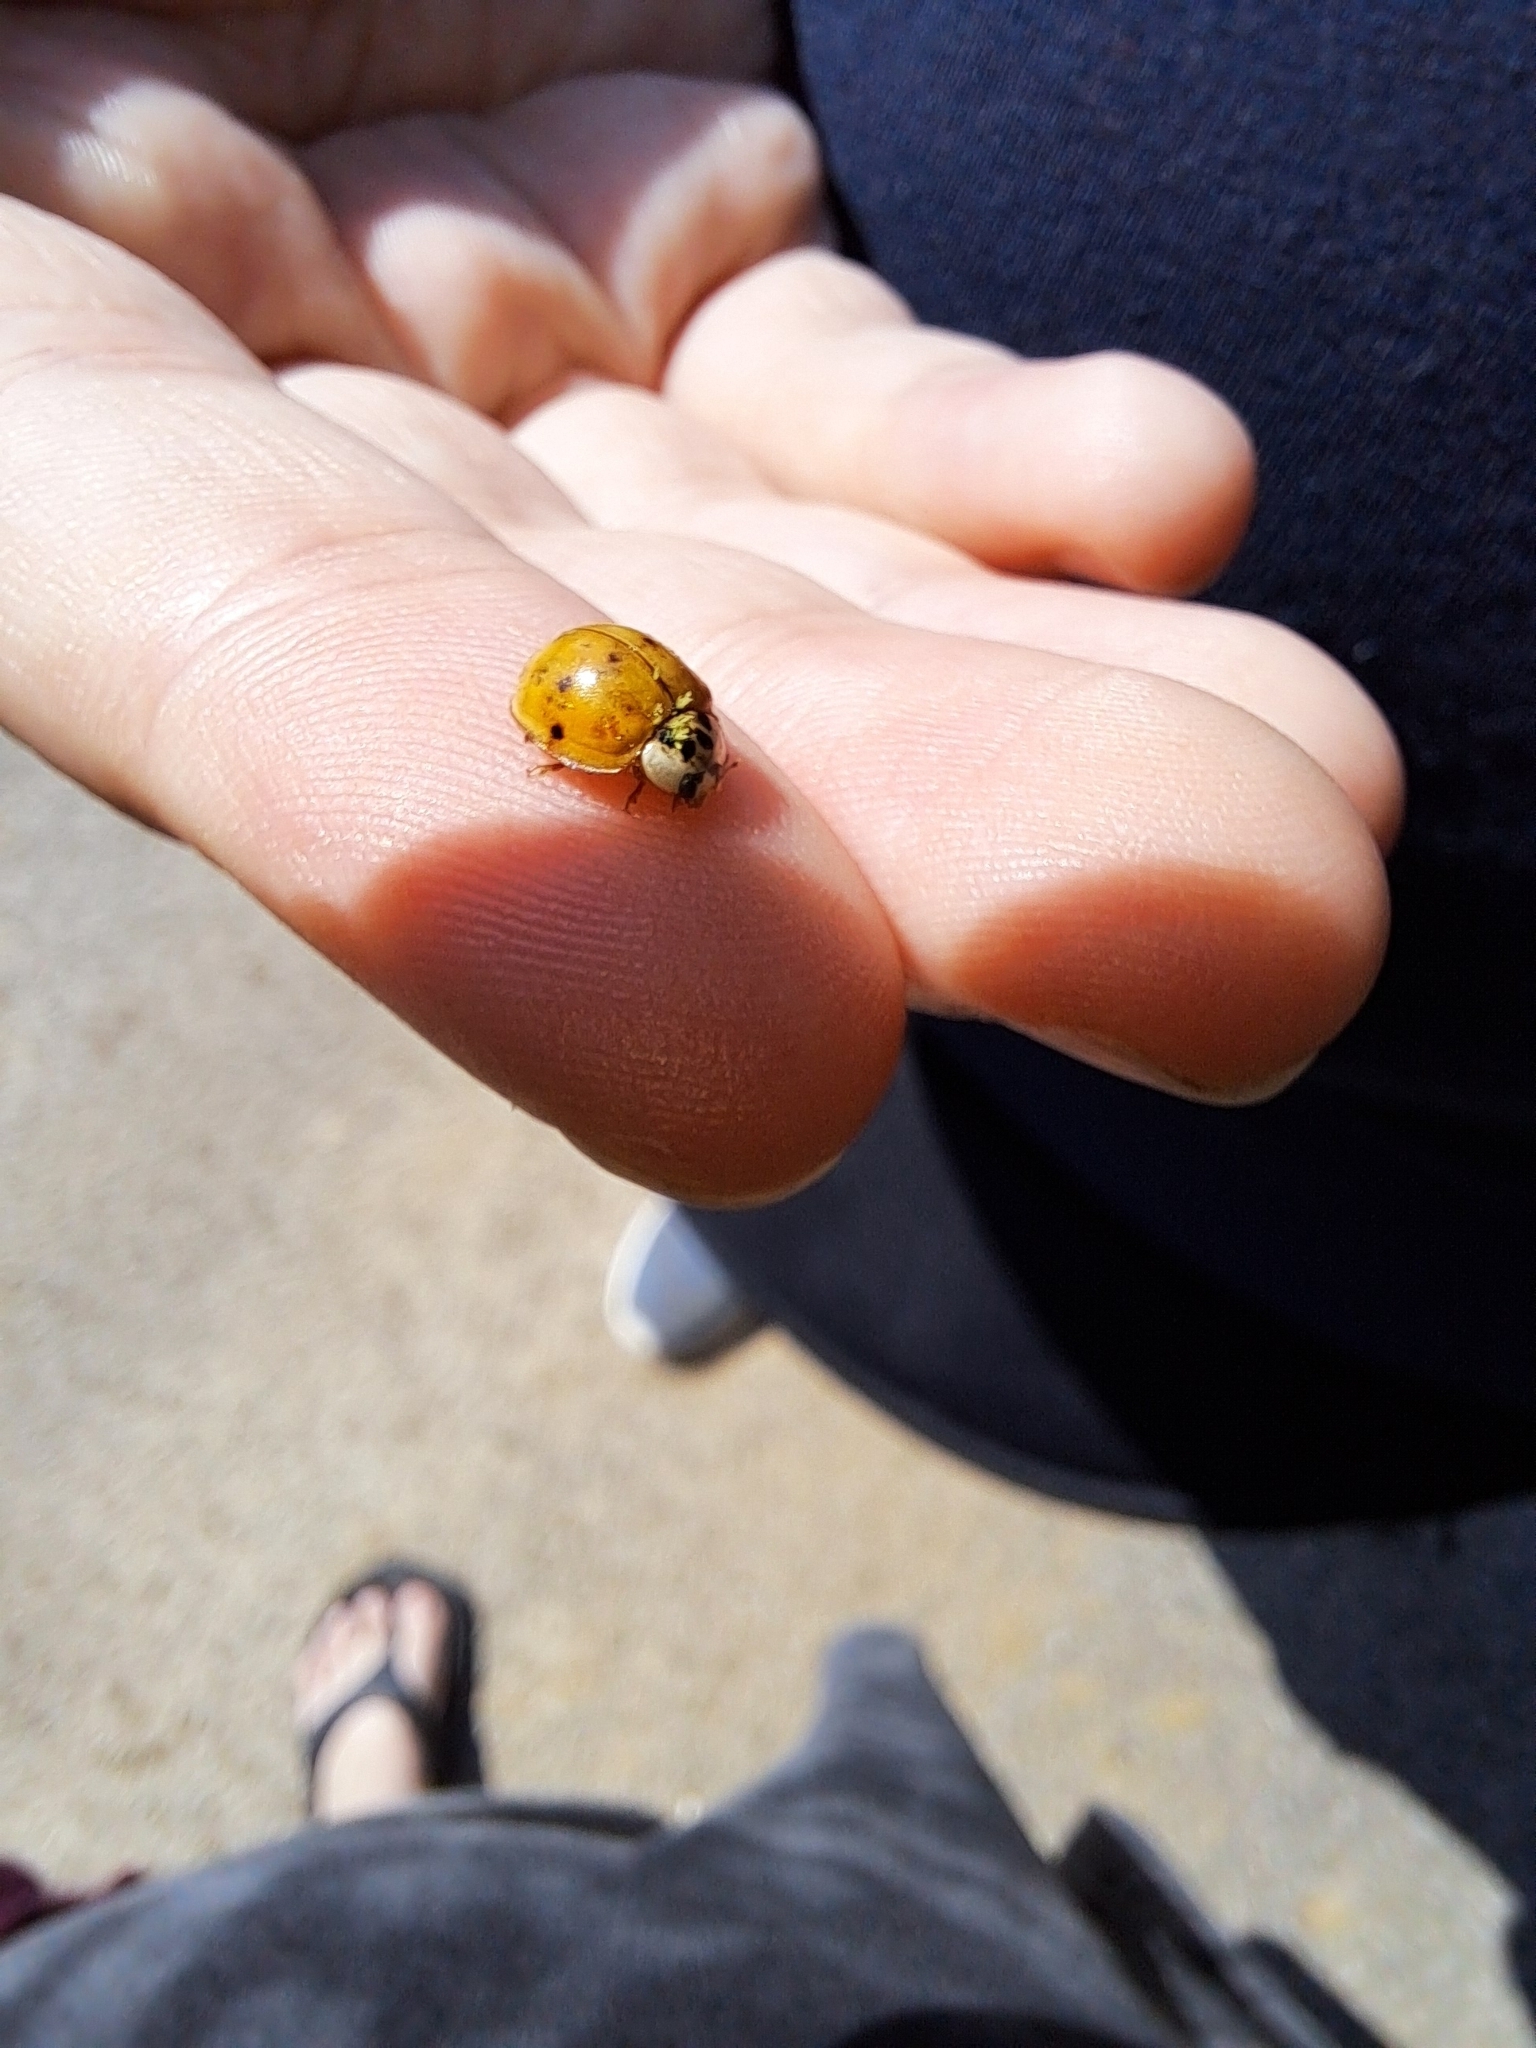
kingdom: Animalia
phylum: Arthropoda
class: Insecta
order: Coleoptera
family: Coccinellidae
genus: Harmonia
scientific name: Harmonia axyridis
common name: Harlequin ladybird
